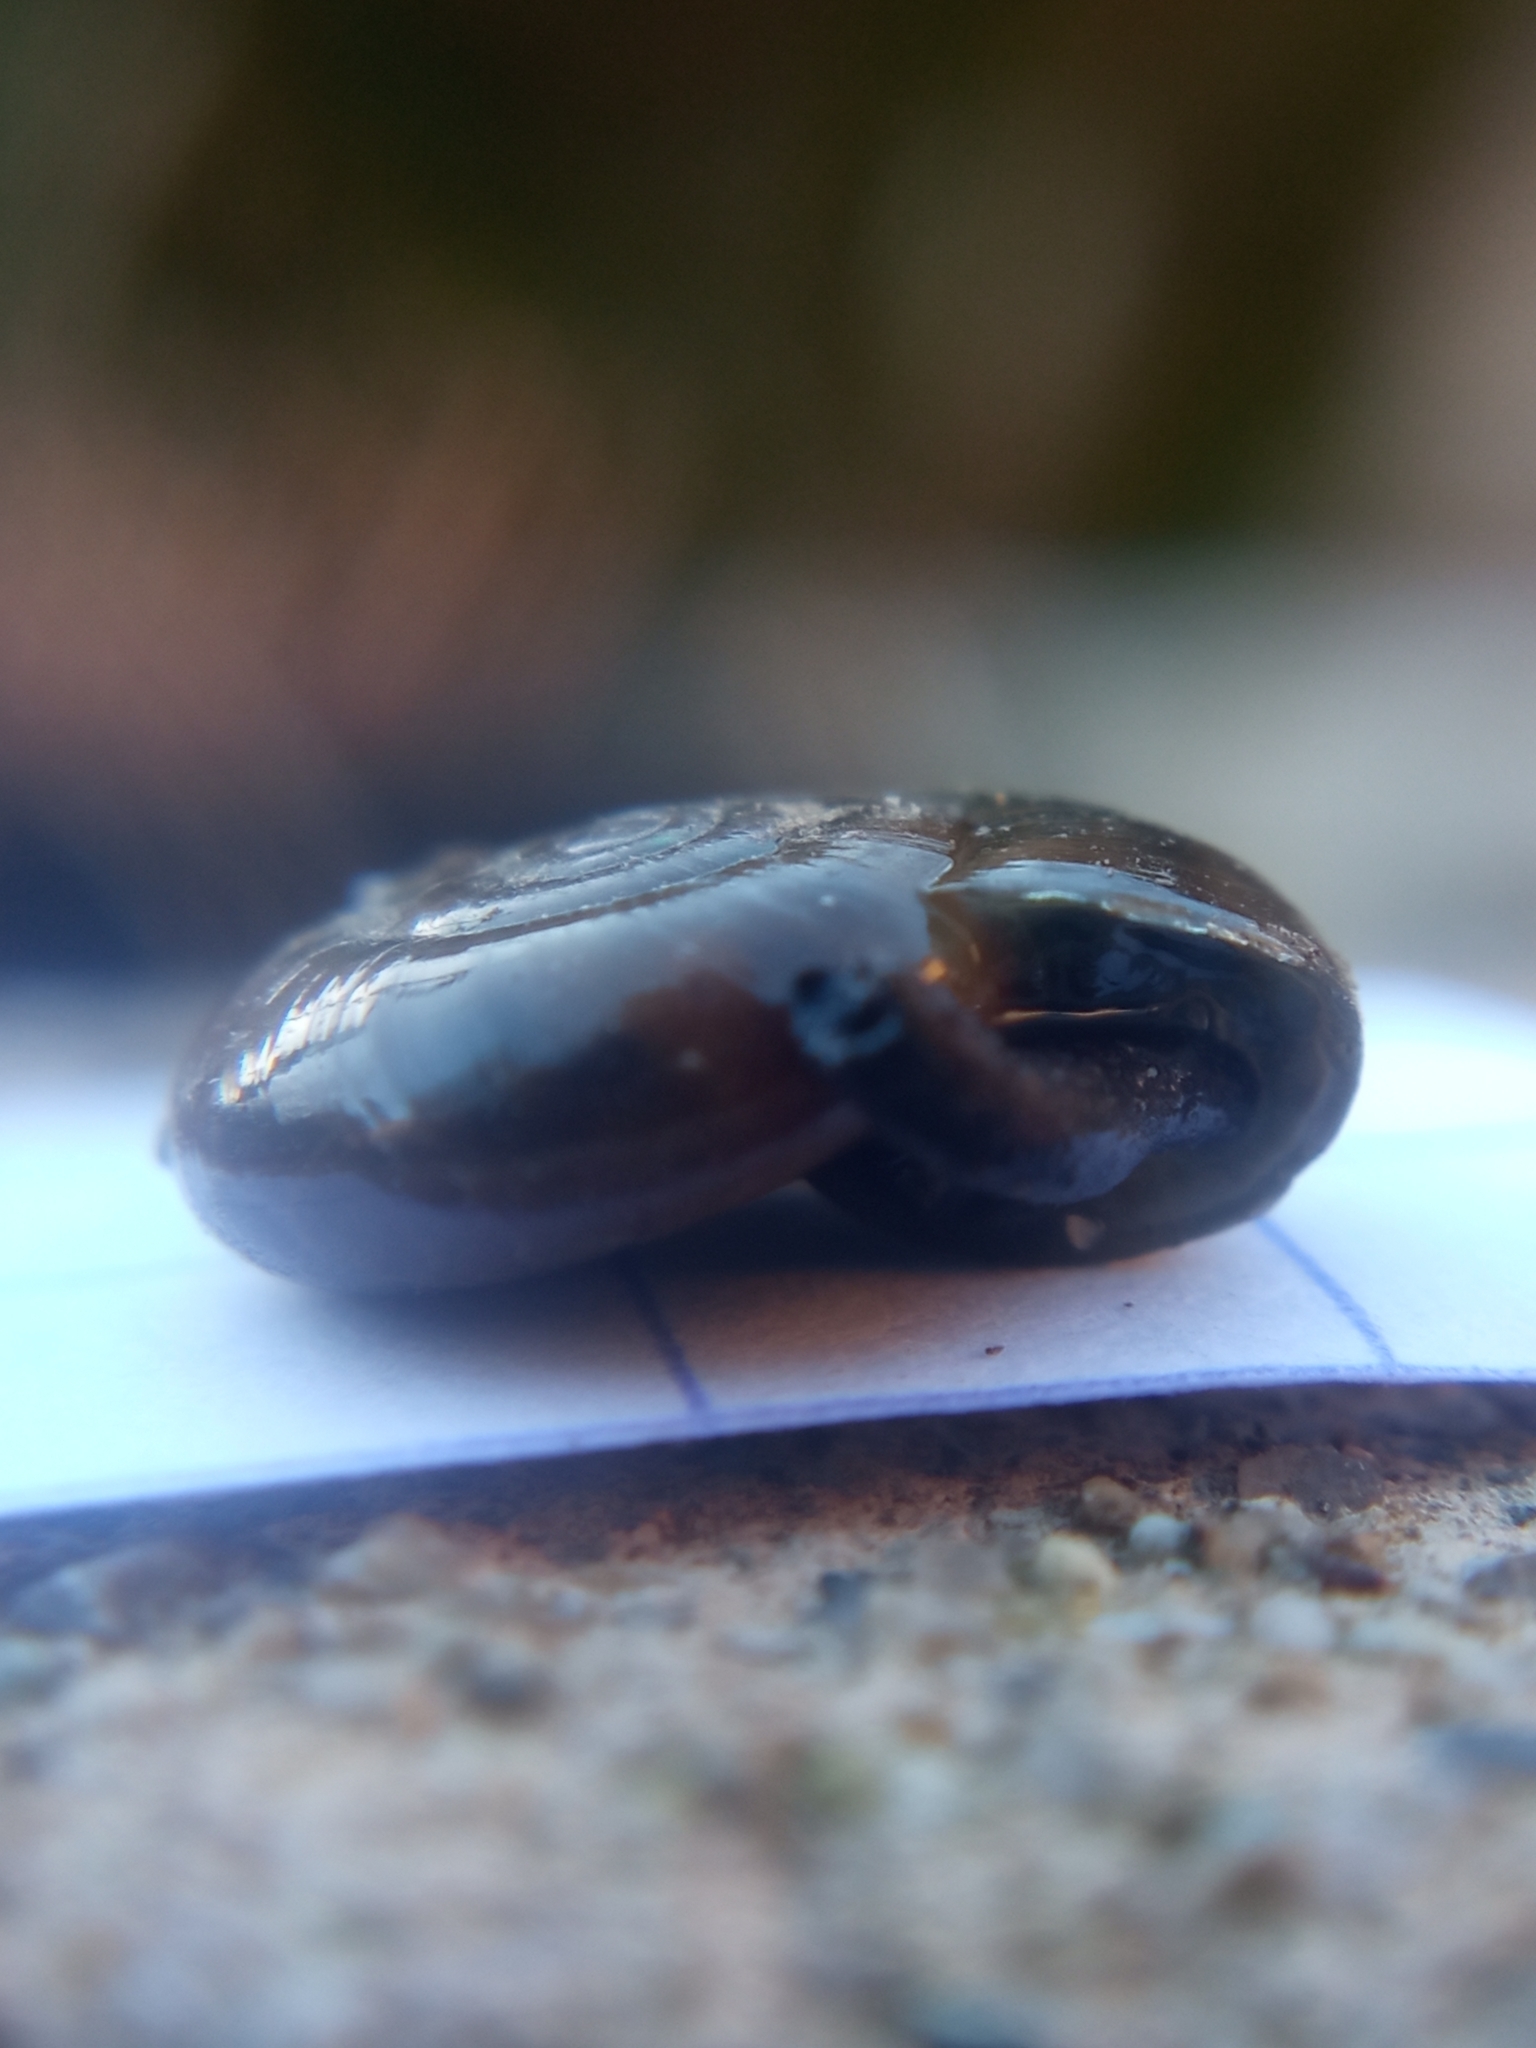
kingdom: Animalia
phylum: Mollusca
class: Gastropoda
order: Stylommatophora
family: Oxychilidae
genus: Oxychilus
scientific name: Oxychilus draparnaudi
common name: Draparnaud's glass snail
